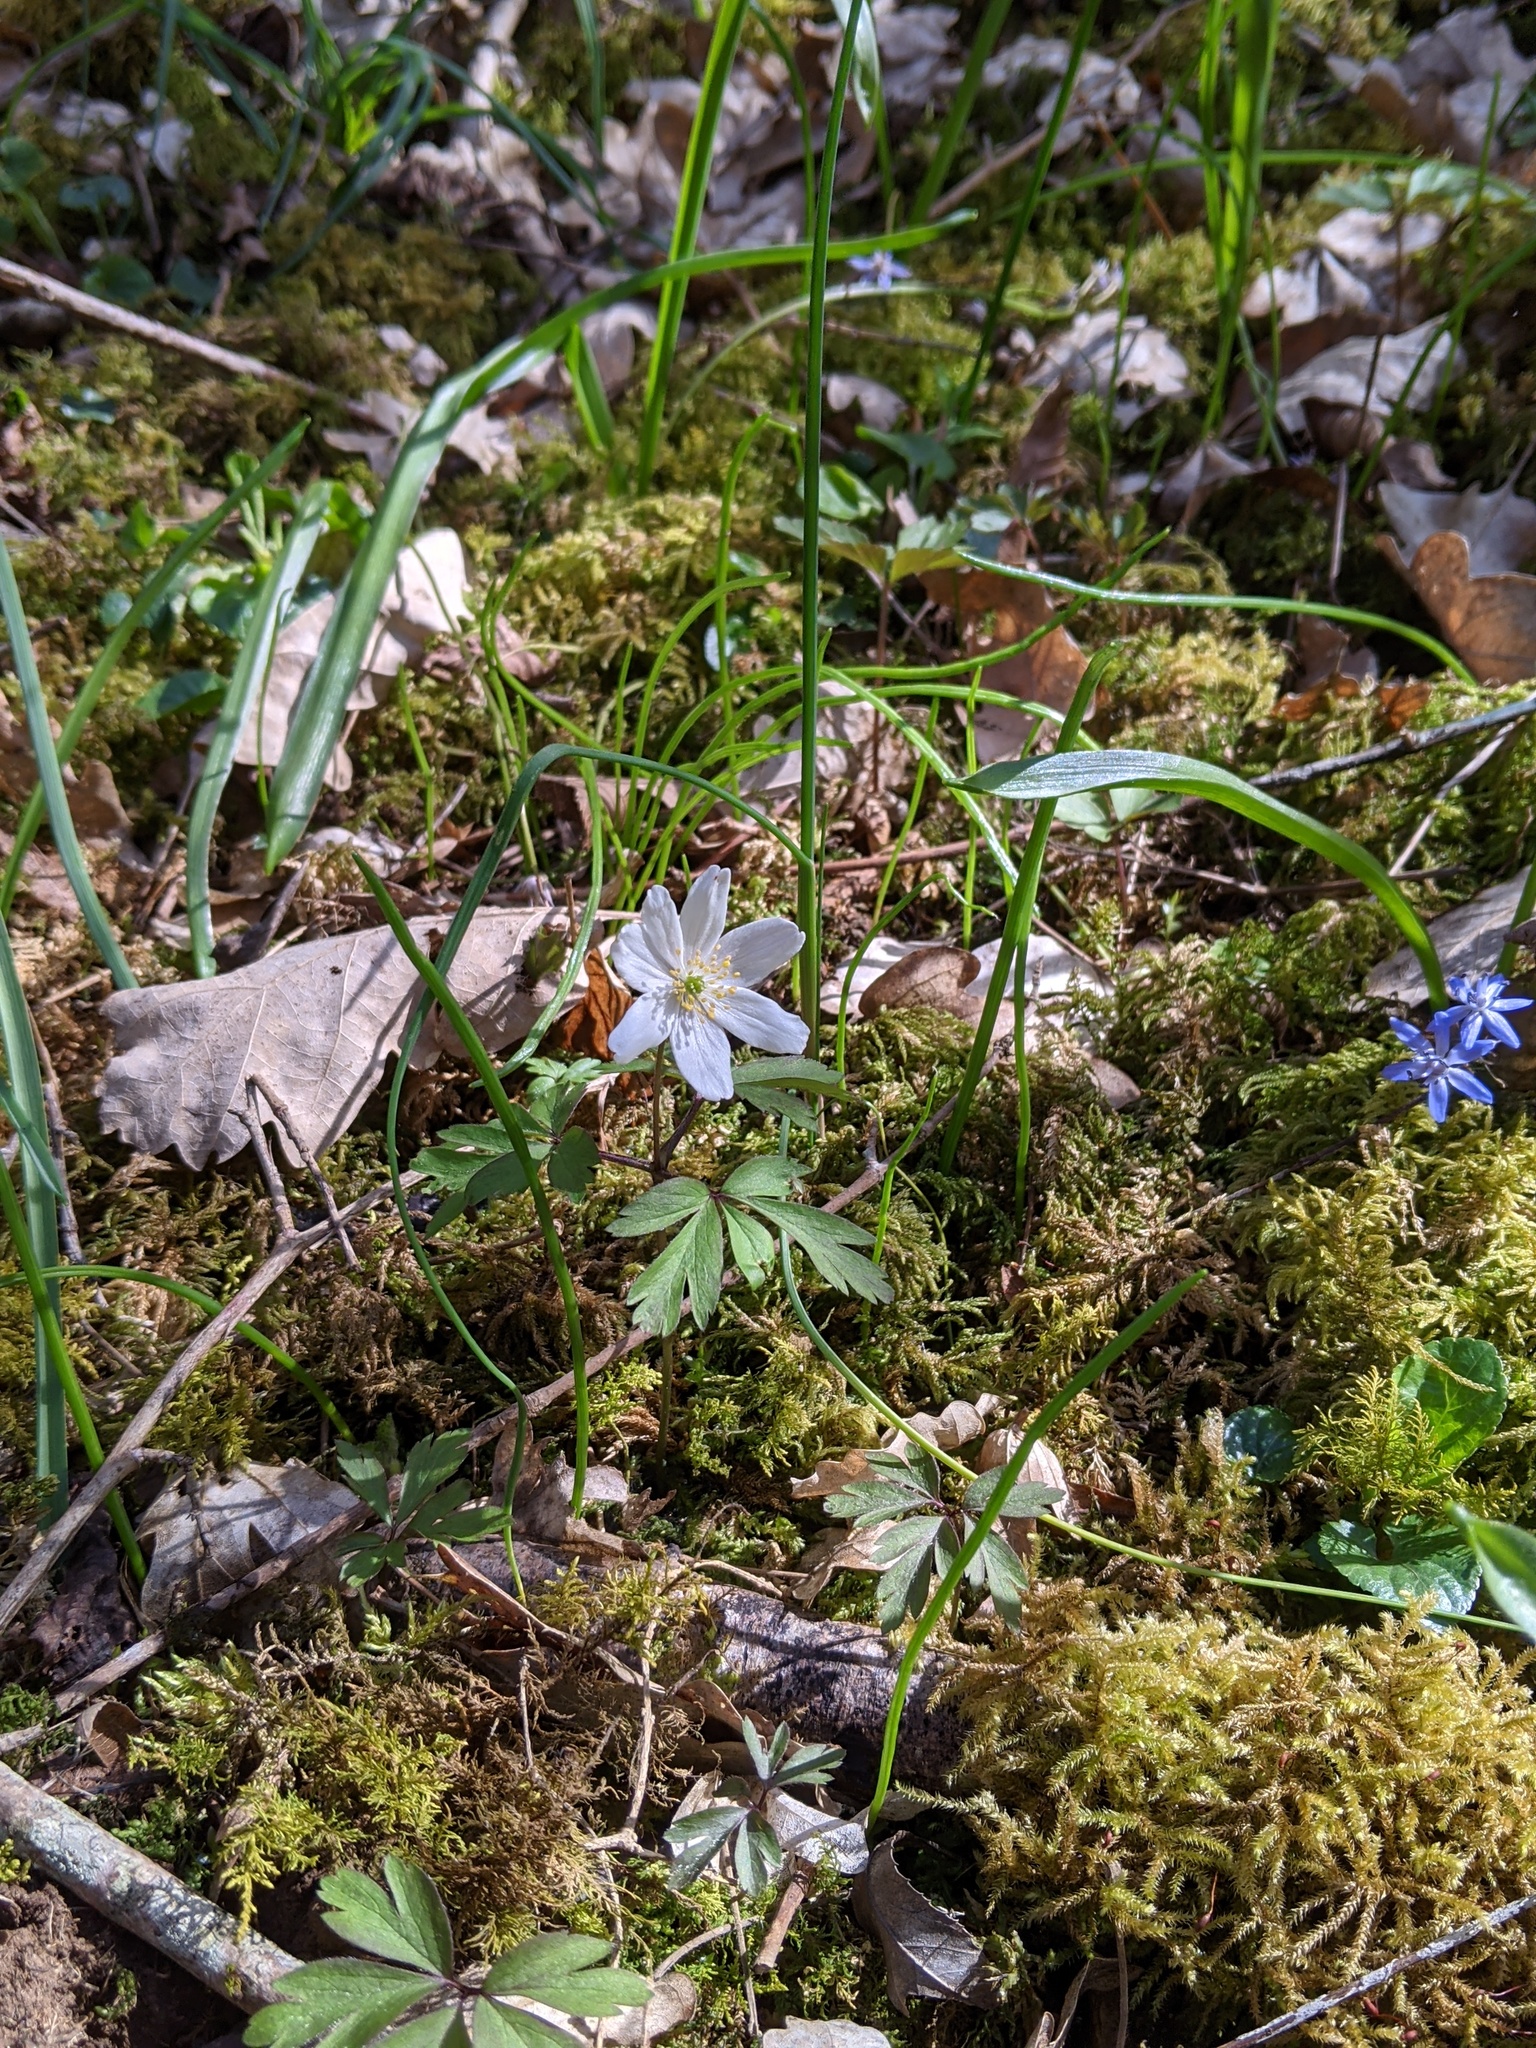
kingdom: Plantae
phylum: Tracheophyta
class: Magnoliopsida
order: Ranunculales
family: Ranunculaceae
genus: Anemone
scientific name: Anemone nemorosa
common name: Wood anemone
